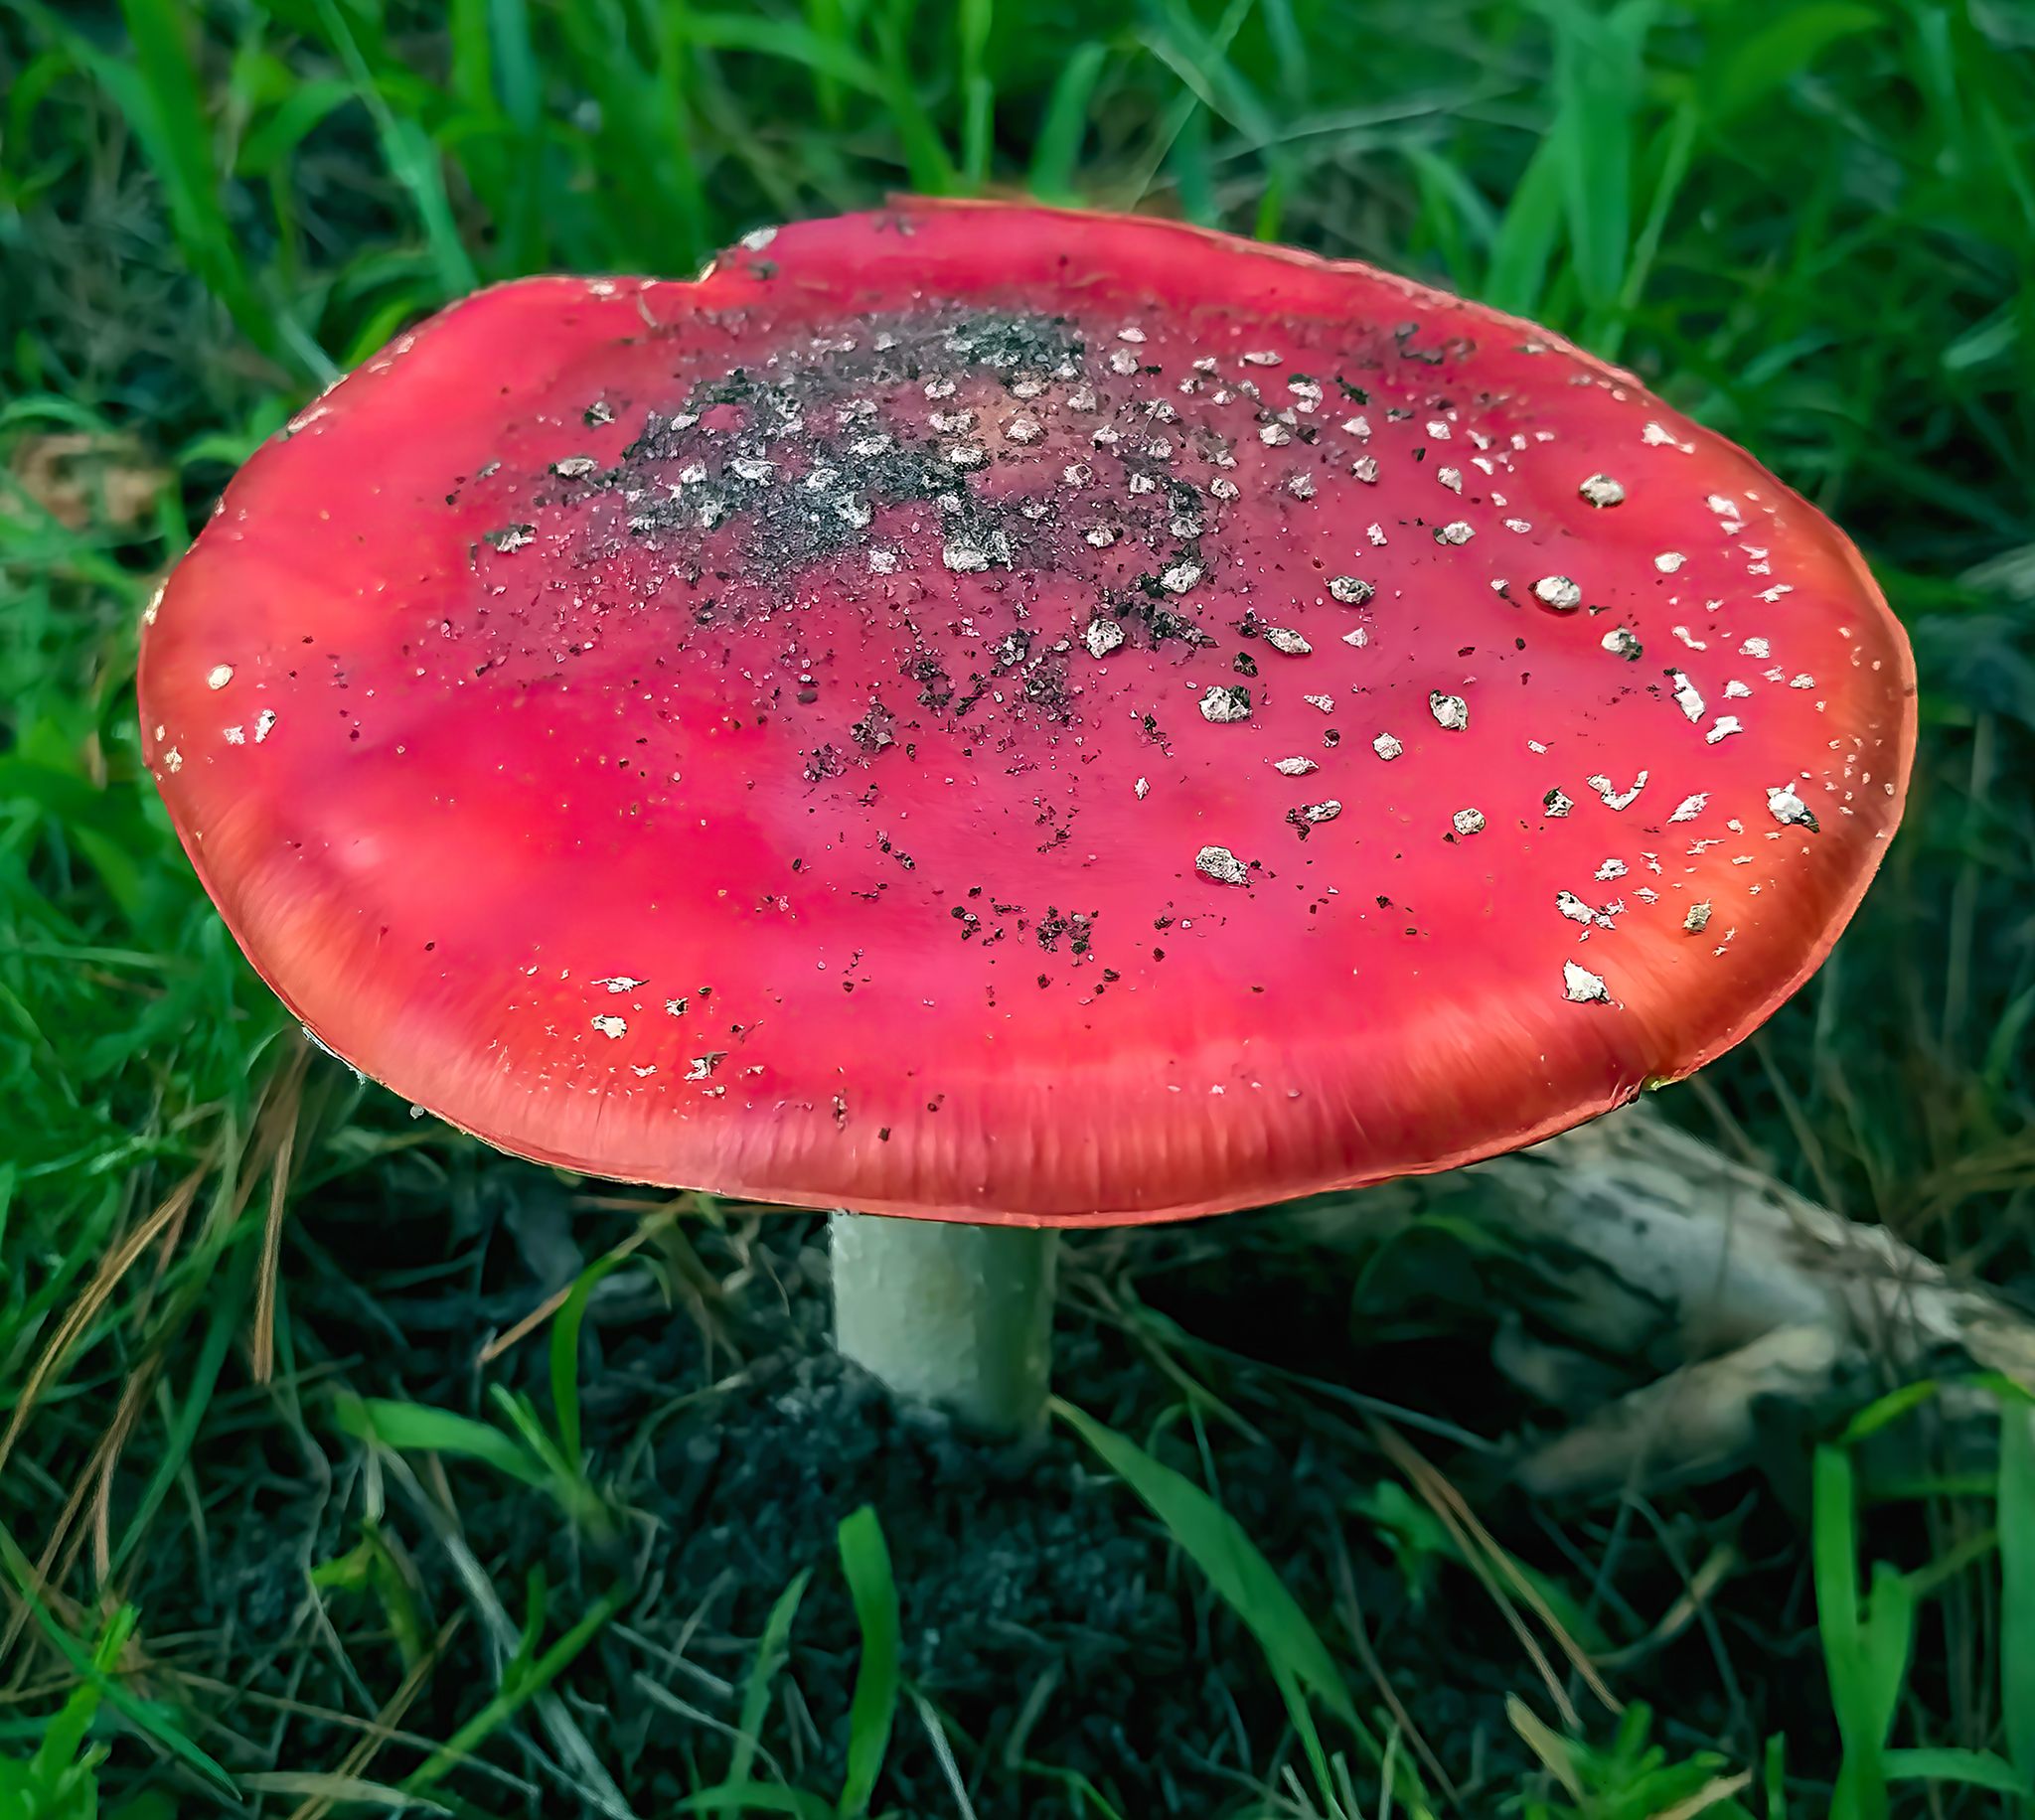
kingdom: Fungi
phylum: Basidiomycota
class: Agaricomycetes
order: Agaricales
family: Amanitaceae
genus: Amanita
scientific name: Amanita muscaria
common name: Fly agaric
